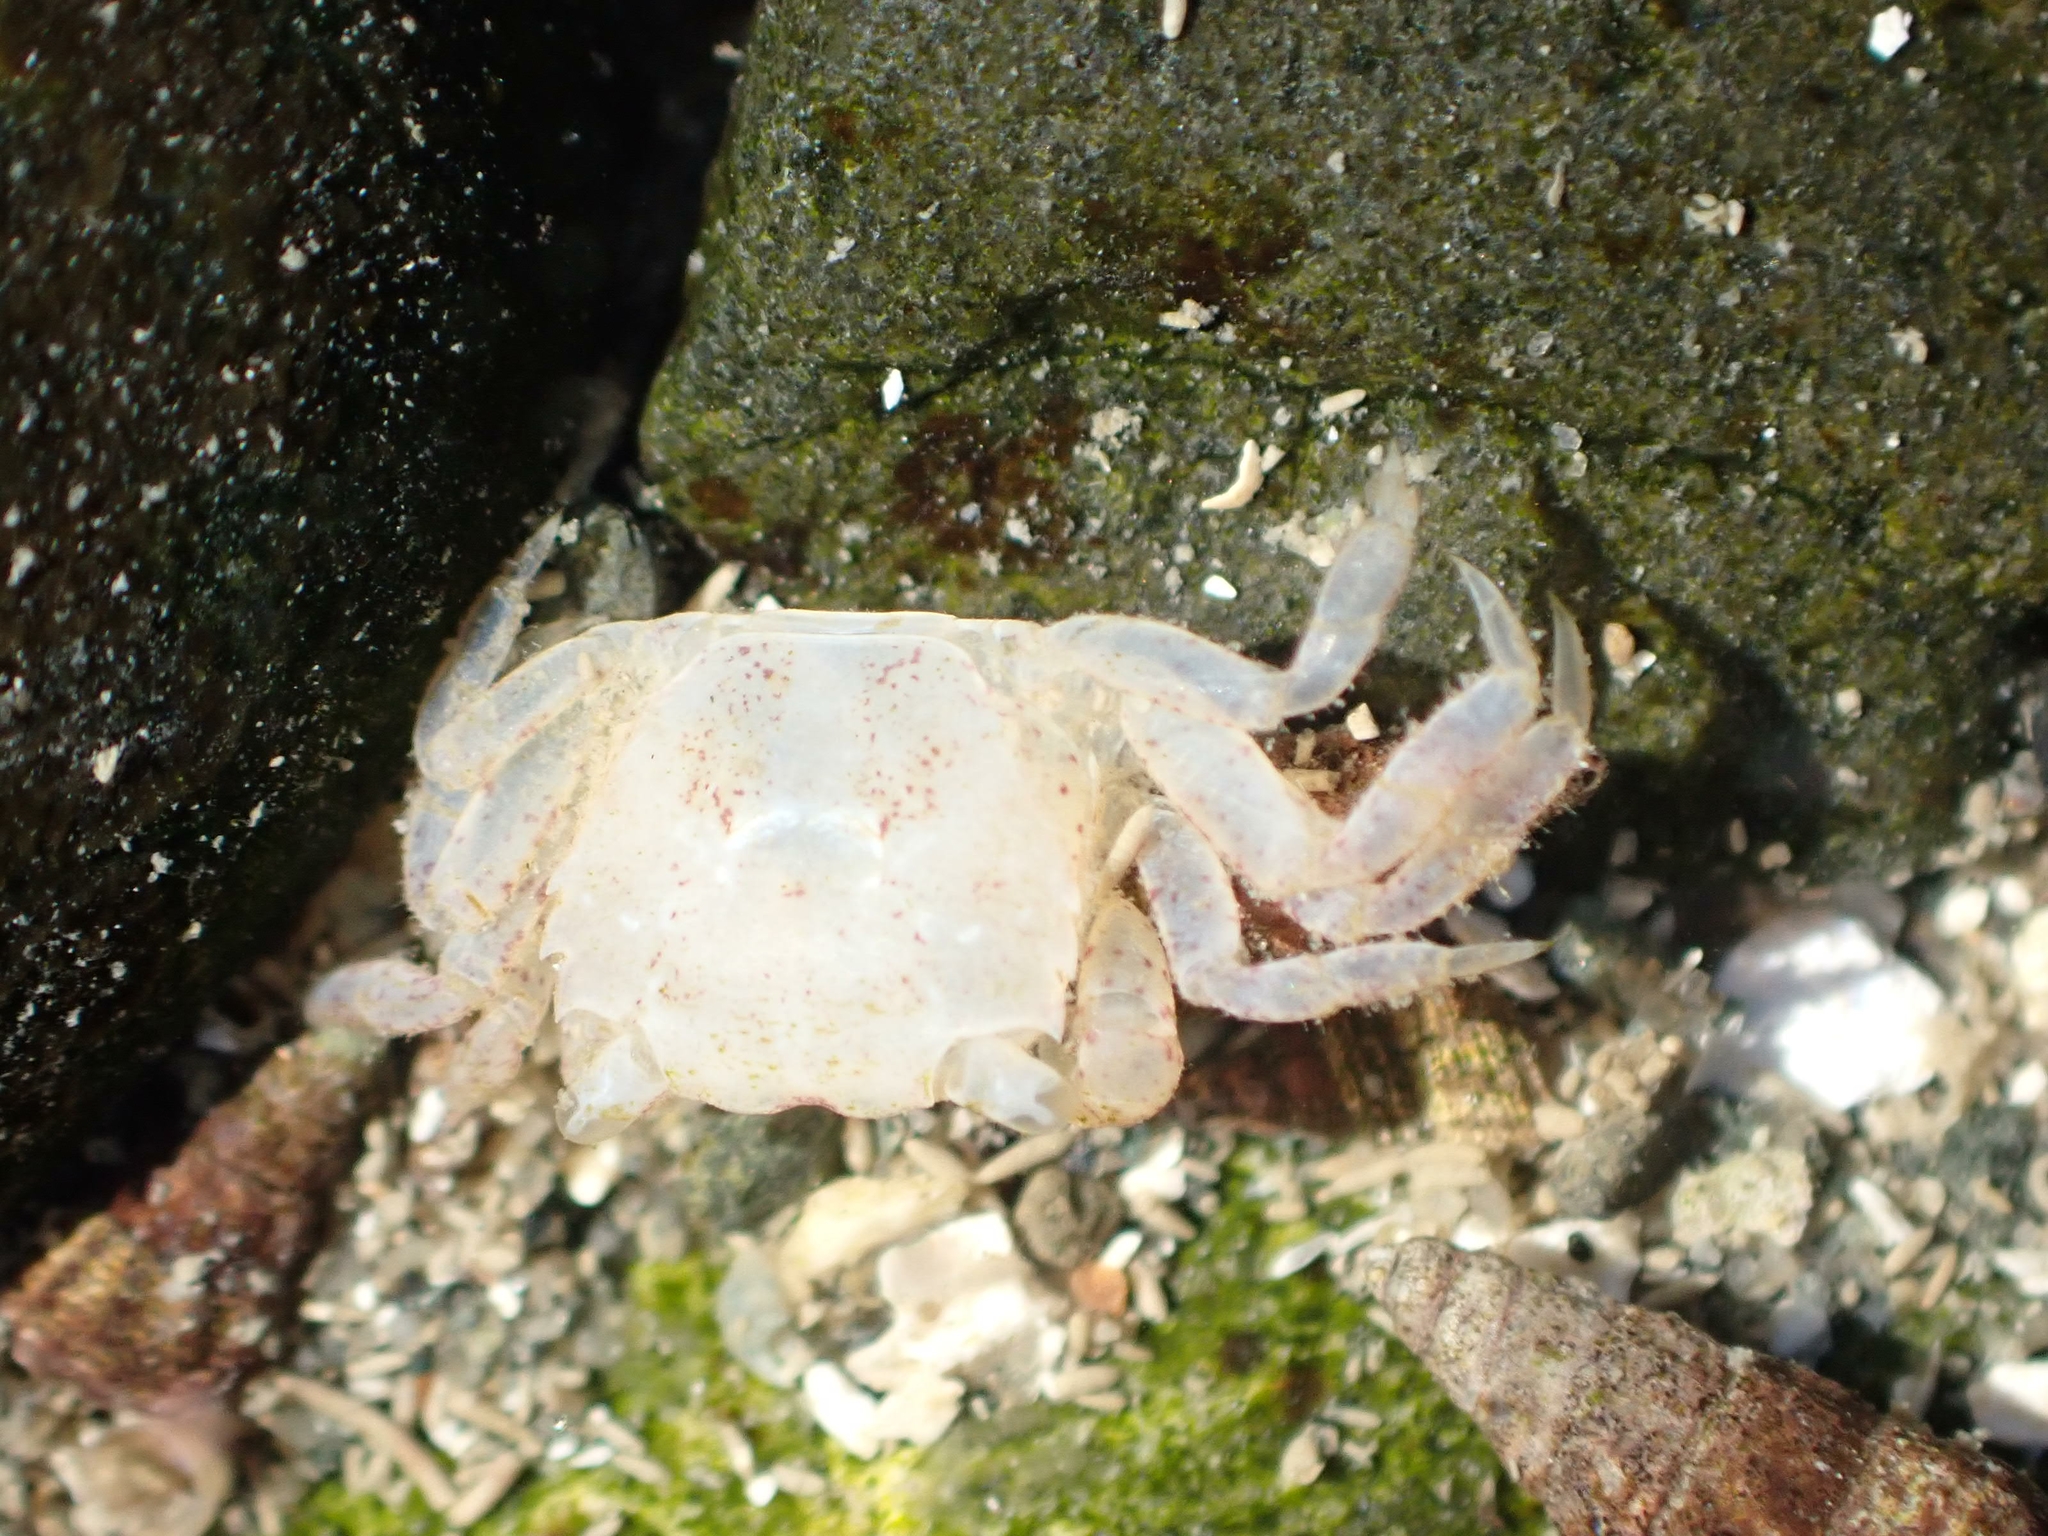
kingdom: Animalia
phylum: Arthropoda
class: Malacostraca
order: Decapoda
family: Varunidae
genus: Hemigrapsus
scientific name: Hemigrapsus oregonensis
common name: Yellow shore crab
